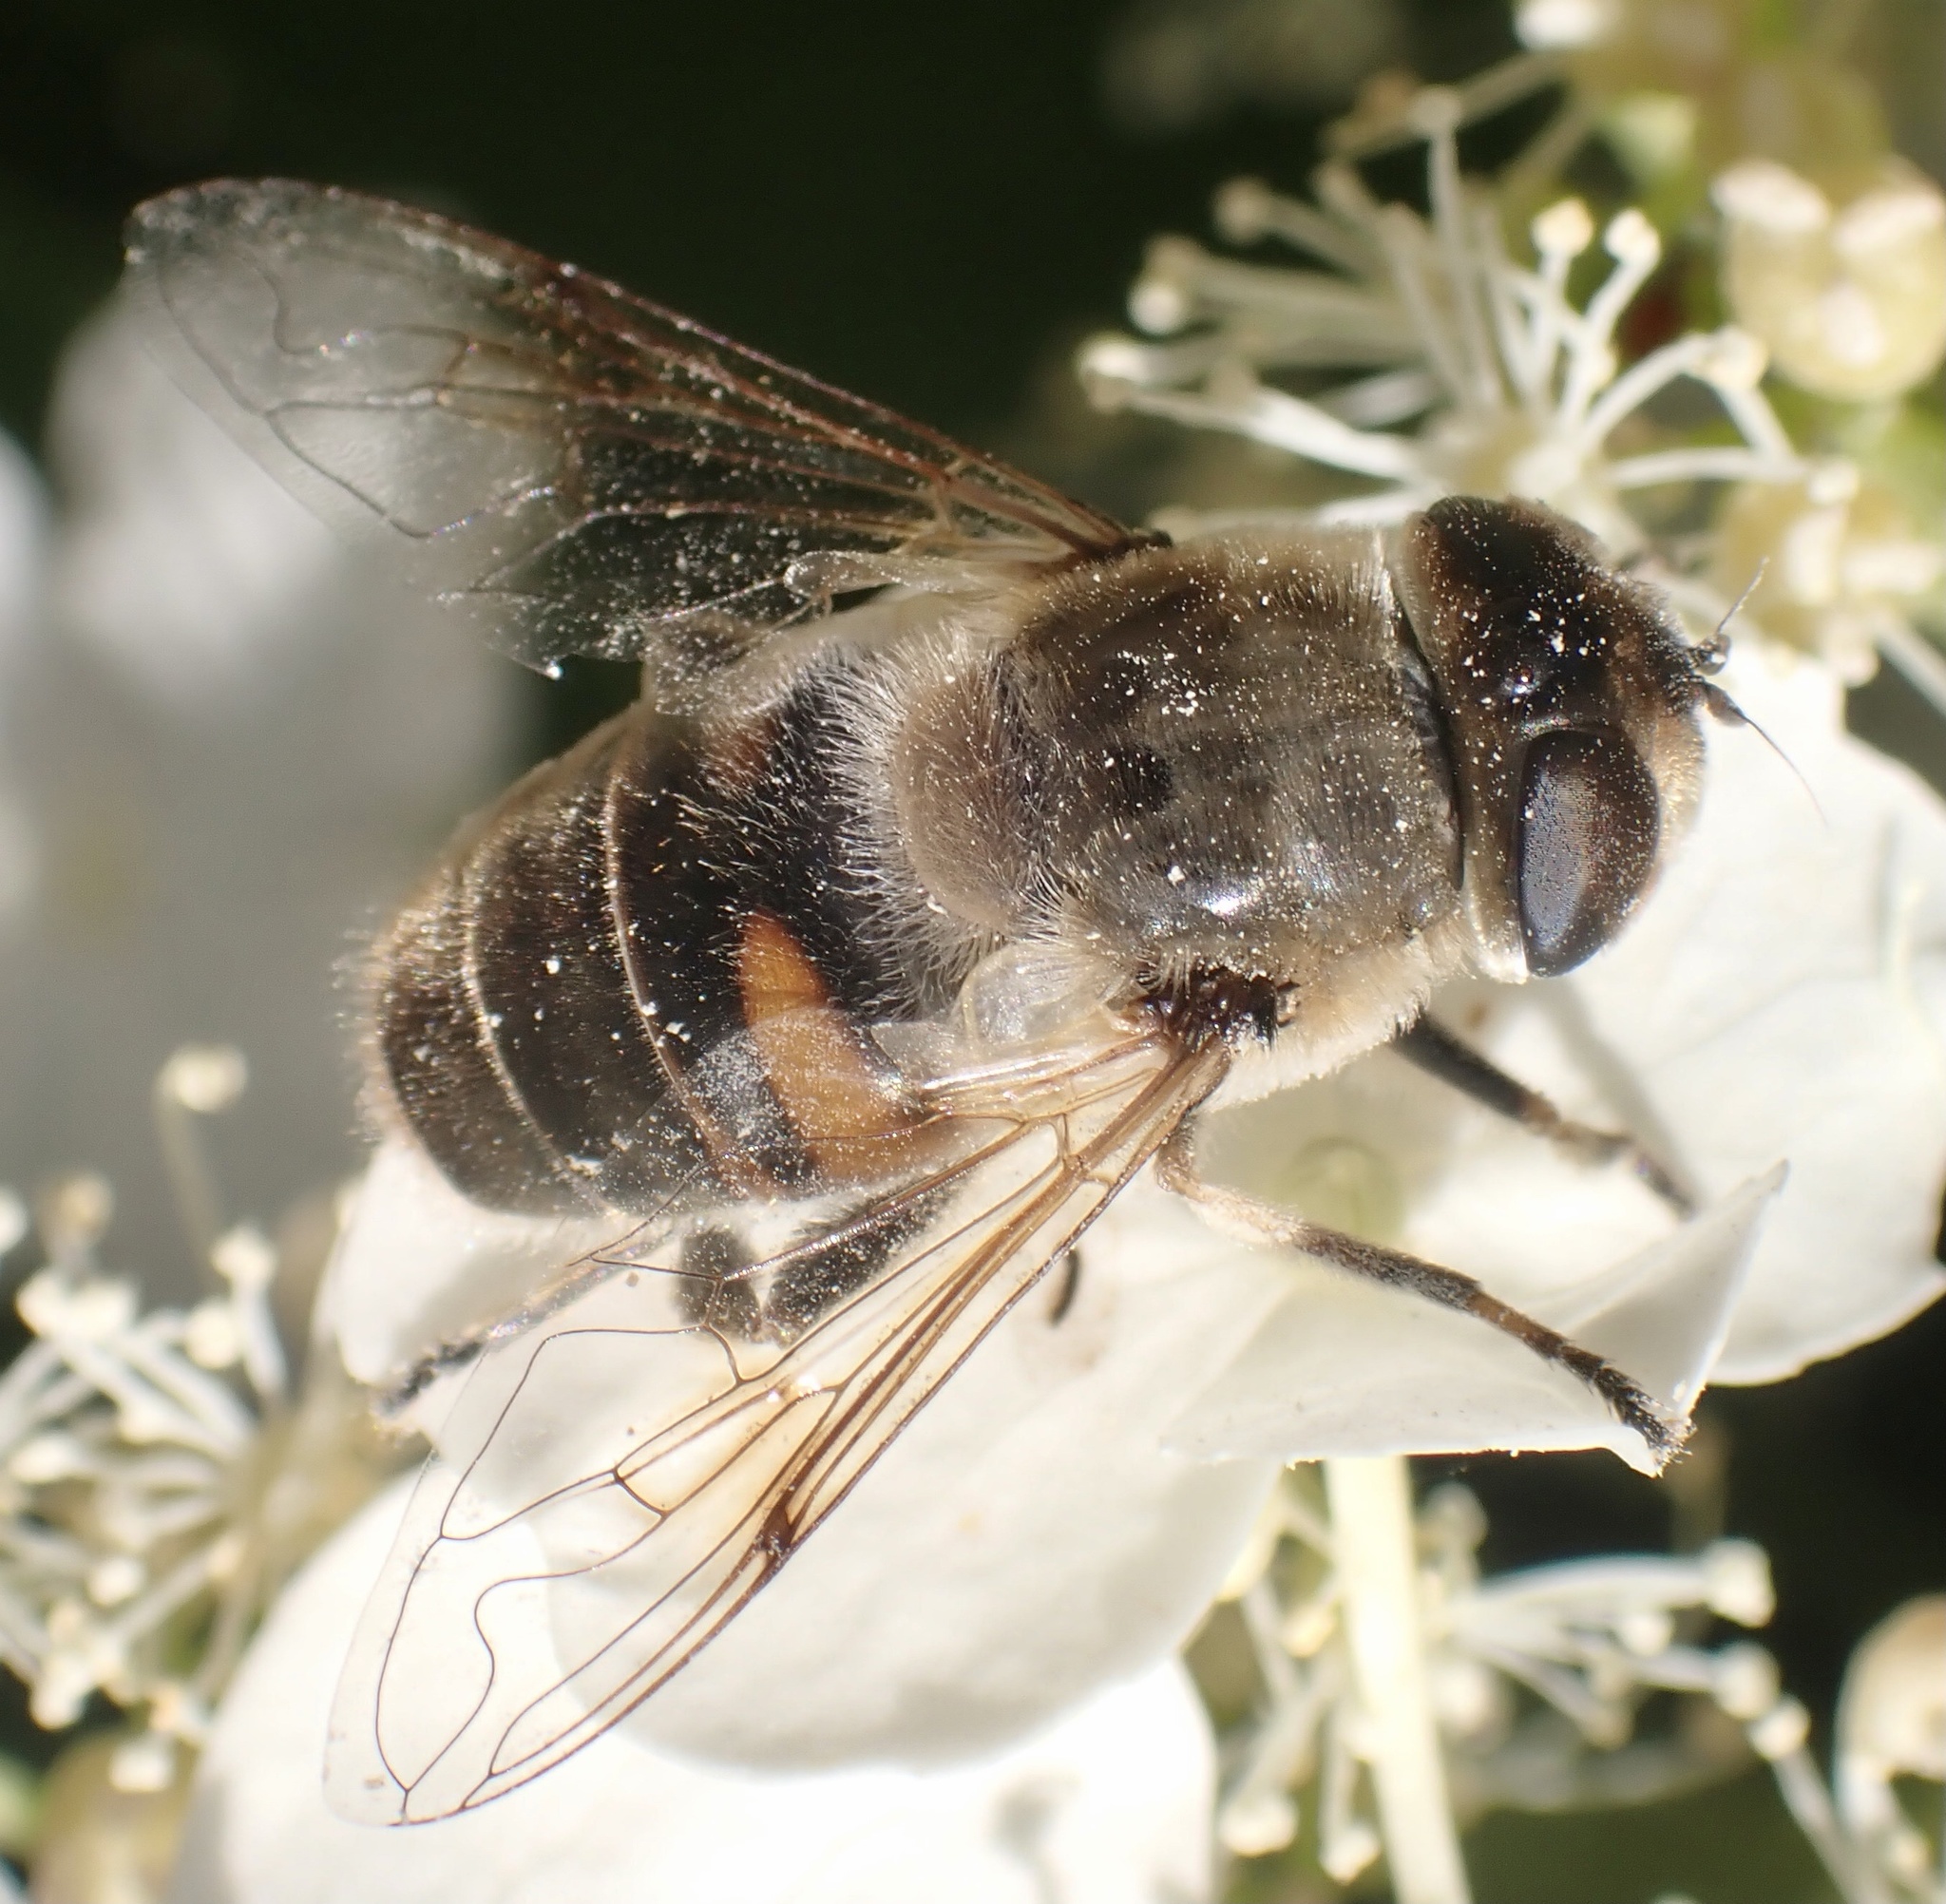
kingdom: Animalia
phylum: Arthropoda
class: Insecta
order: Diptera
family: Syrphidae
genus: Eristalis
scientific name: Eristalis tenax
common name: Drone fly
